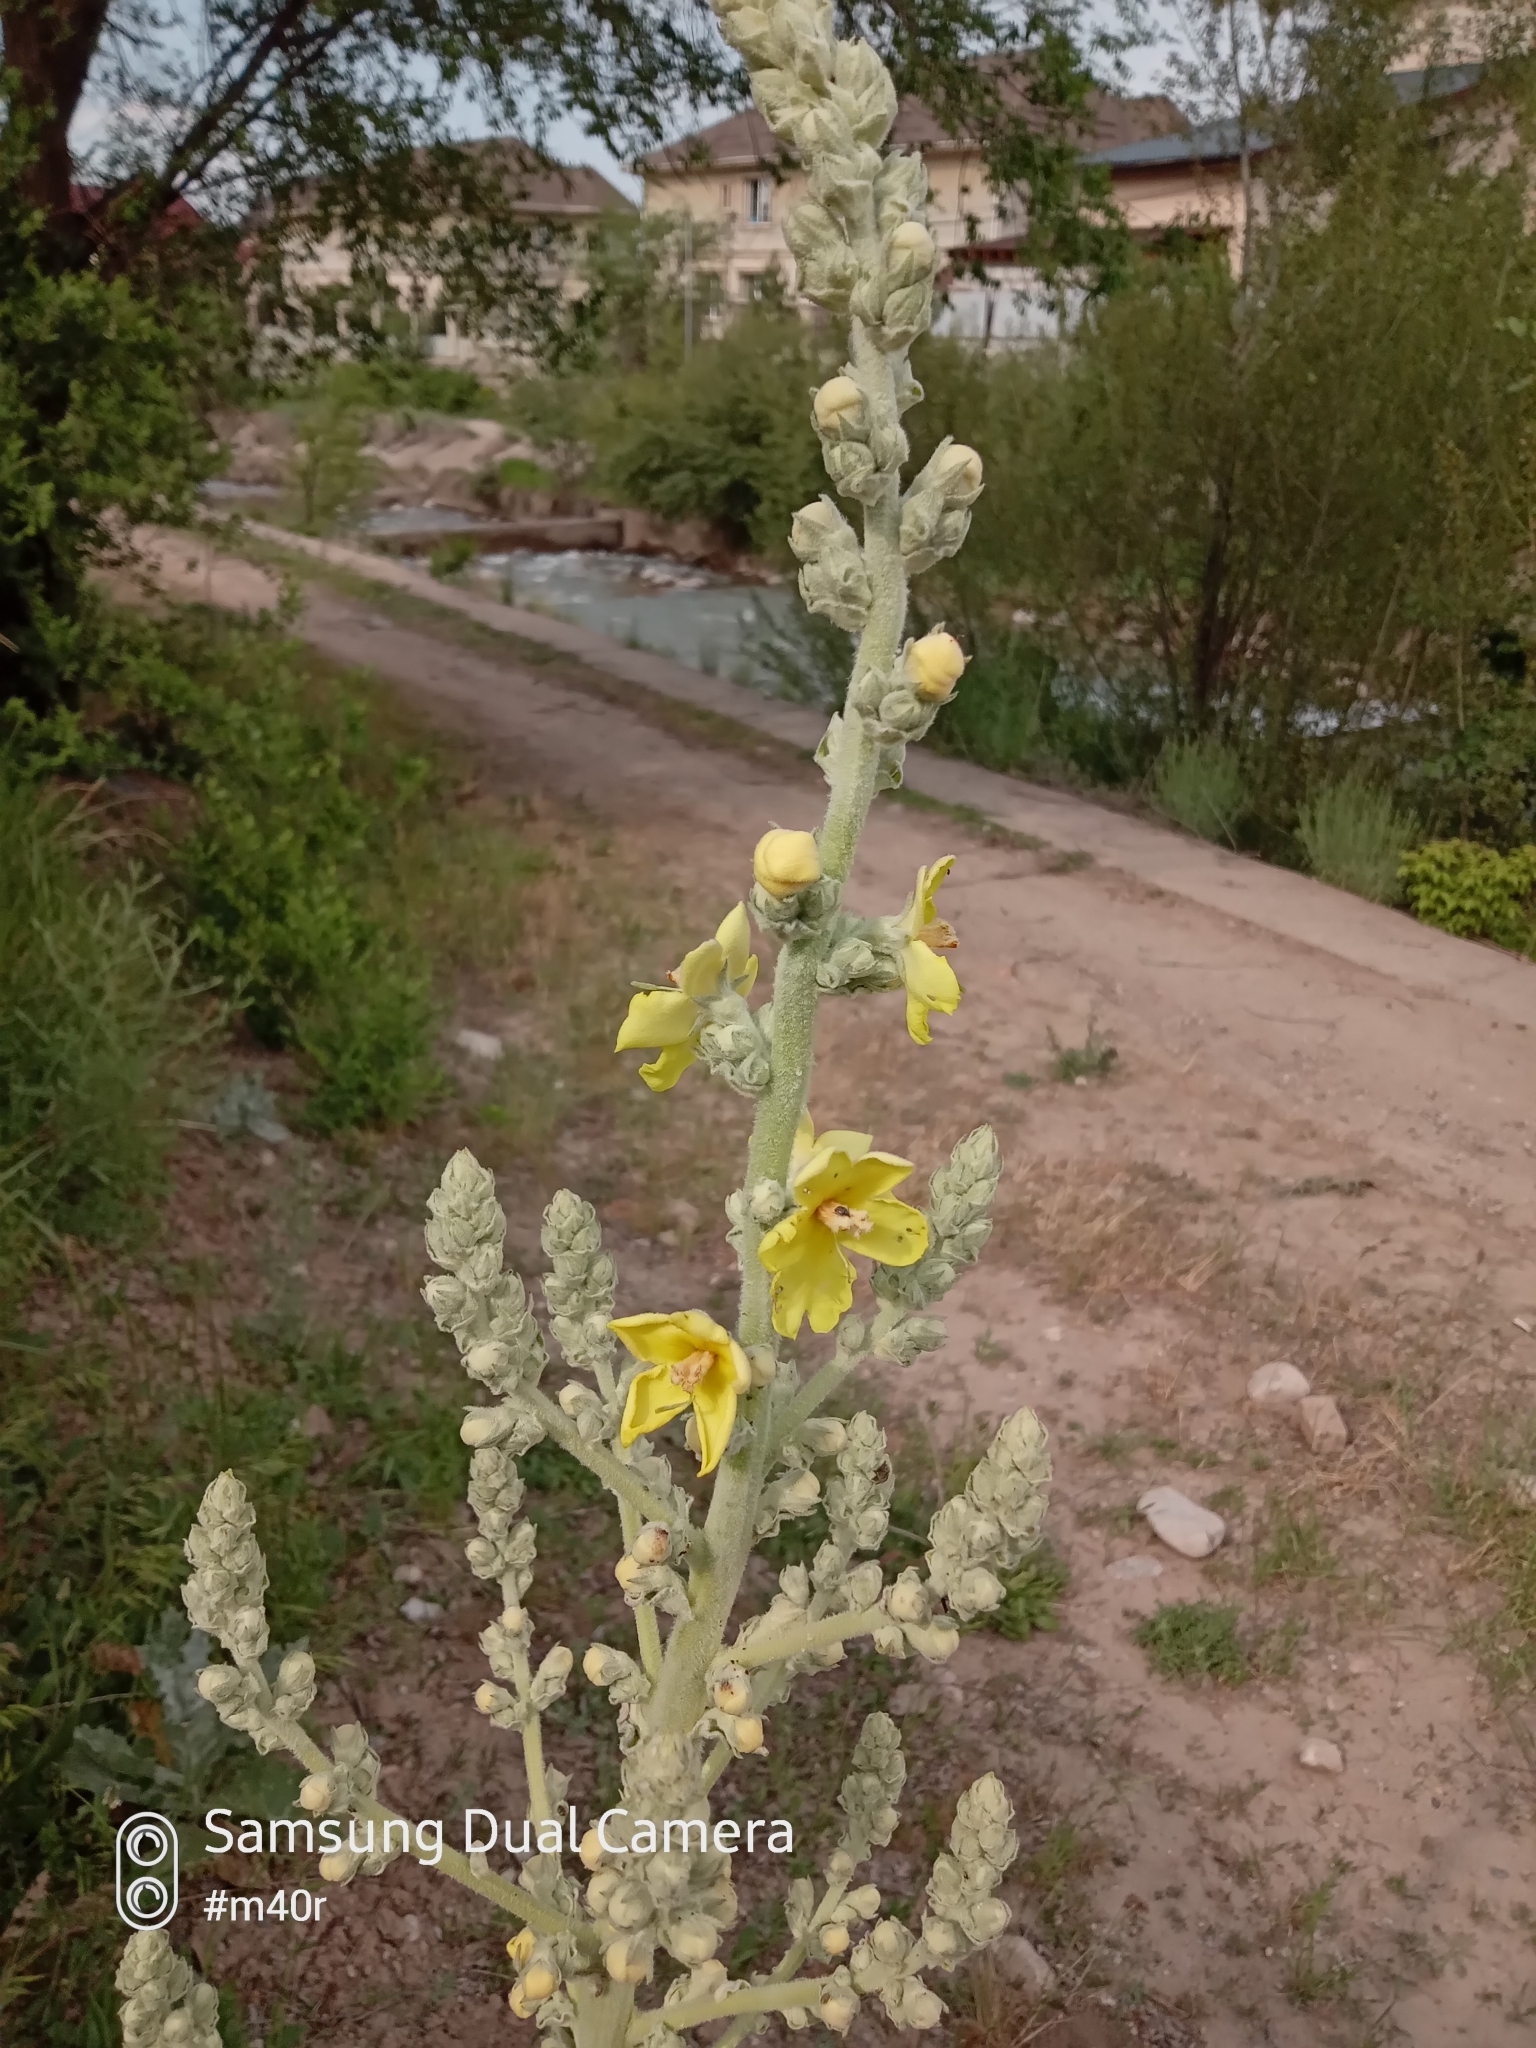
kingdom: Plantae
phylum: Tracheophyta
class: Magnoliopsida
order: Lamiales
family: Scrophulariaceae
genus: Verbascum
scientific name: Verbascum songaricum
